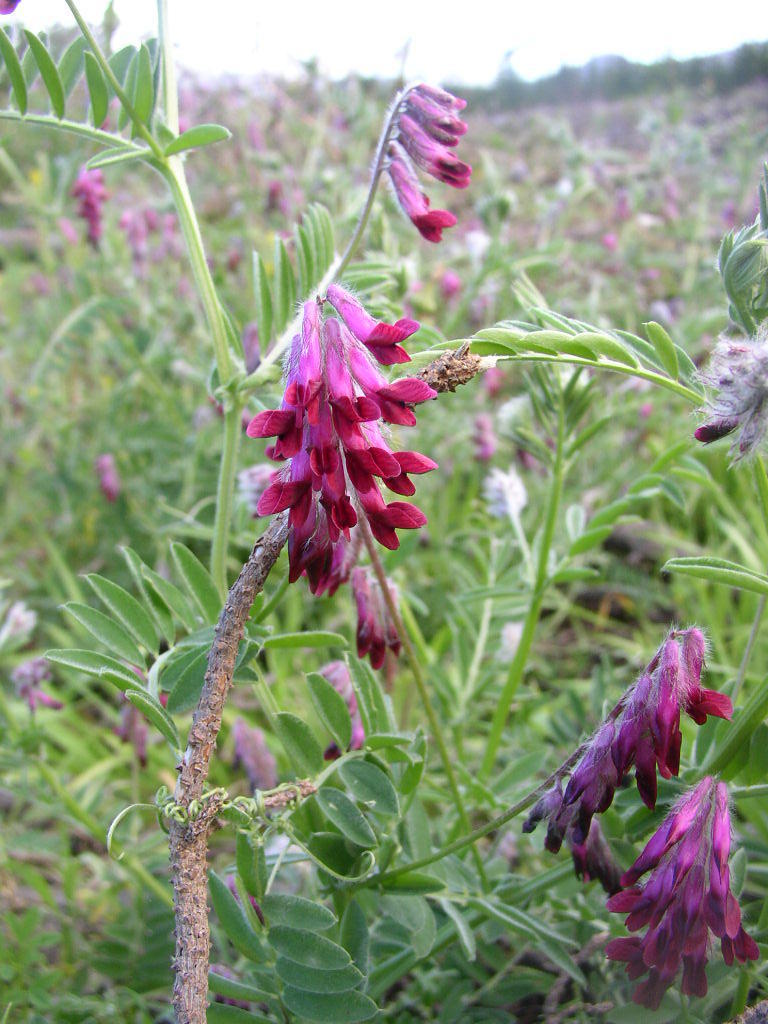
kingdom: Plantae
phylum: Tracheophyta
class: Magnoliopsida
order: Fabales
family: Fabaceae
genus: Vicia
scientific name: Vicia benghalensis
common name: Purple vetch
